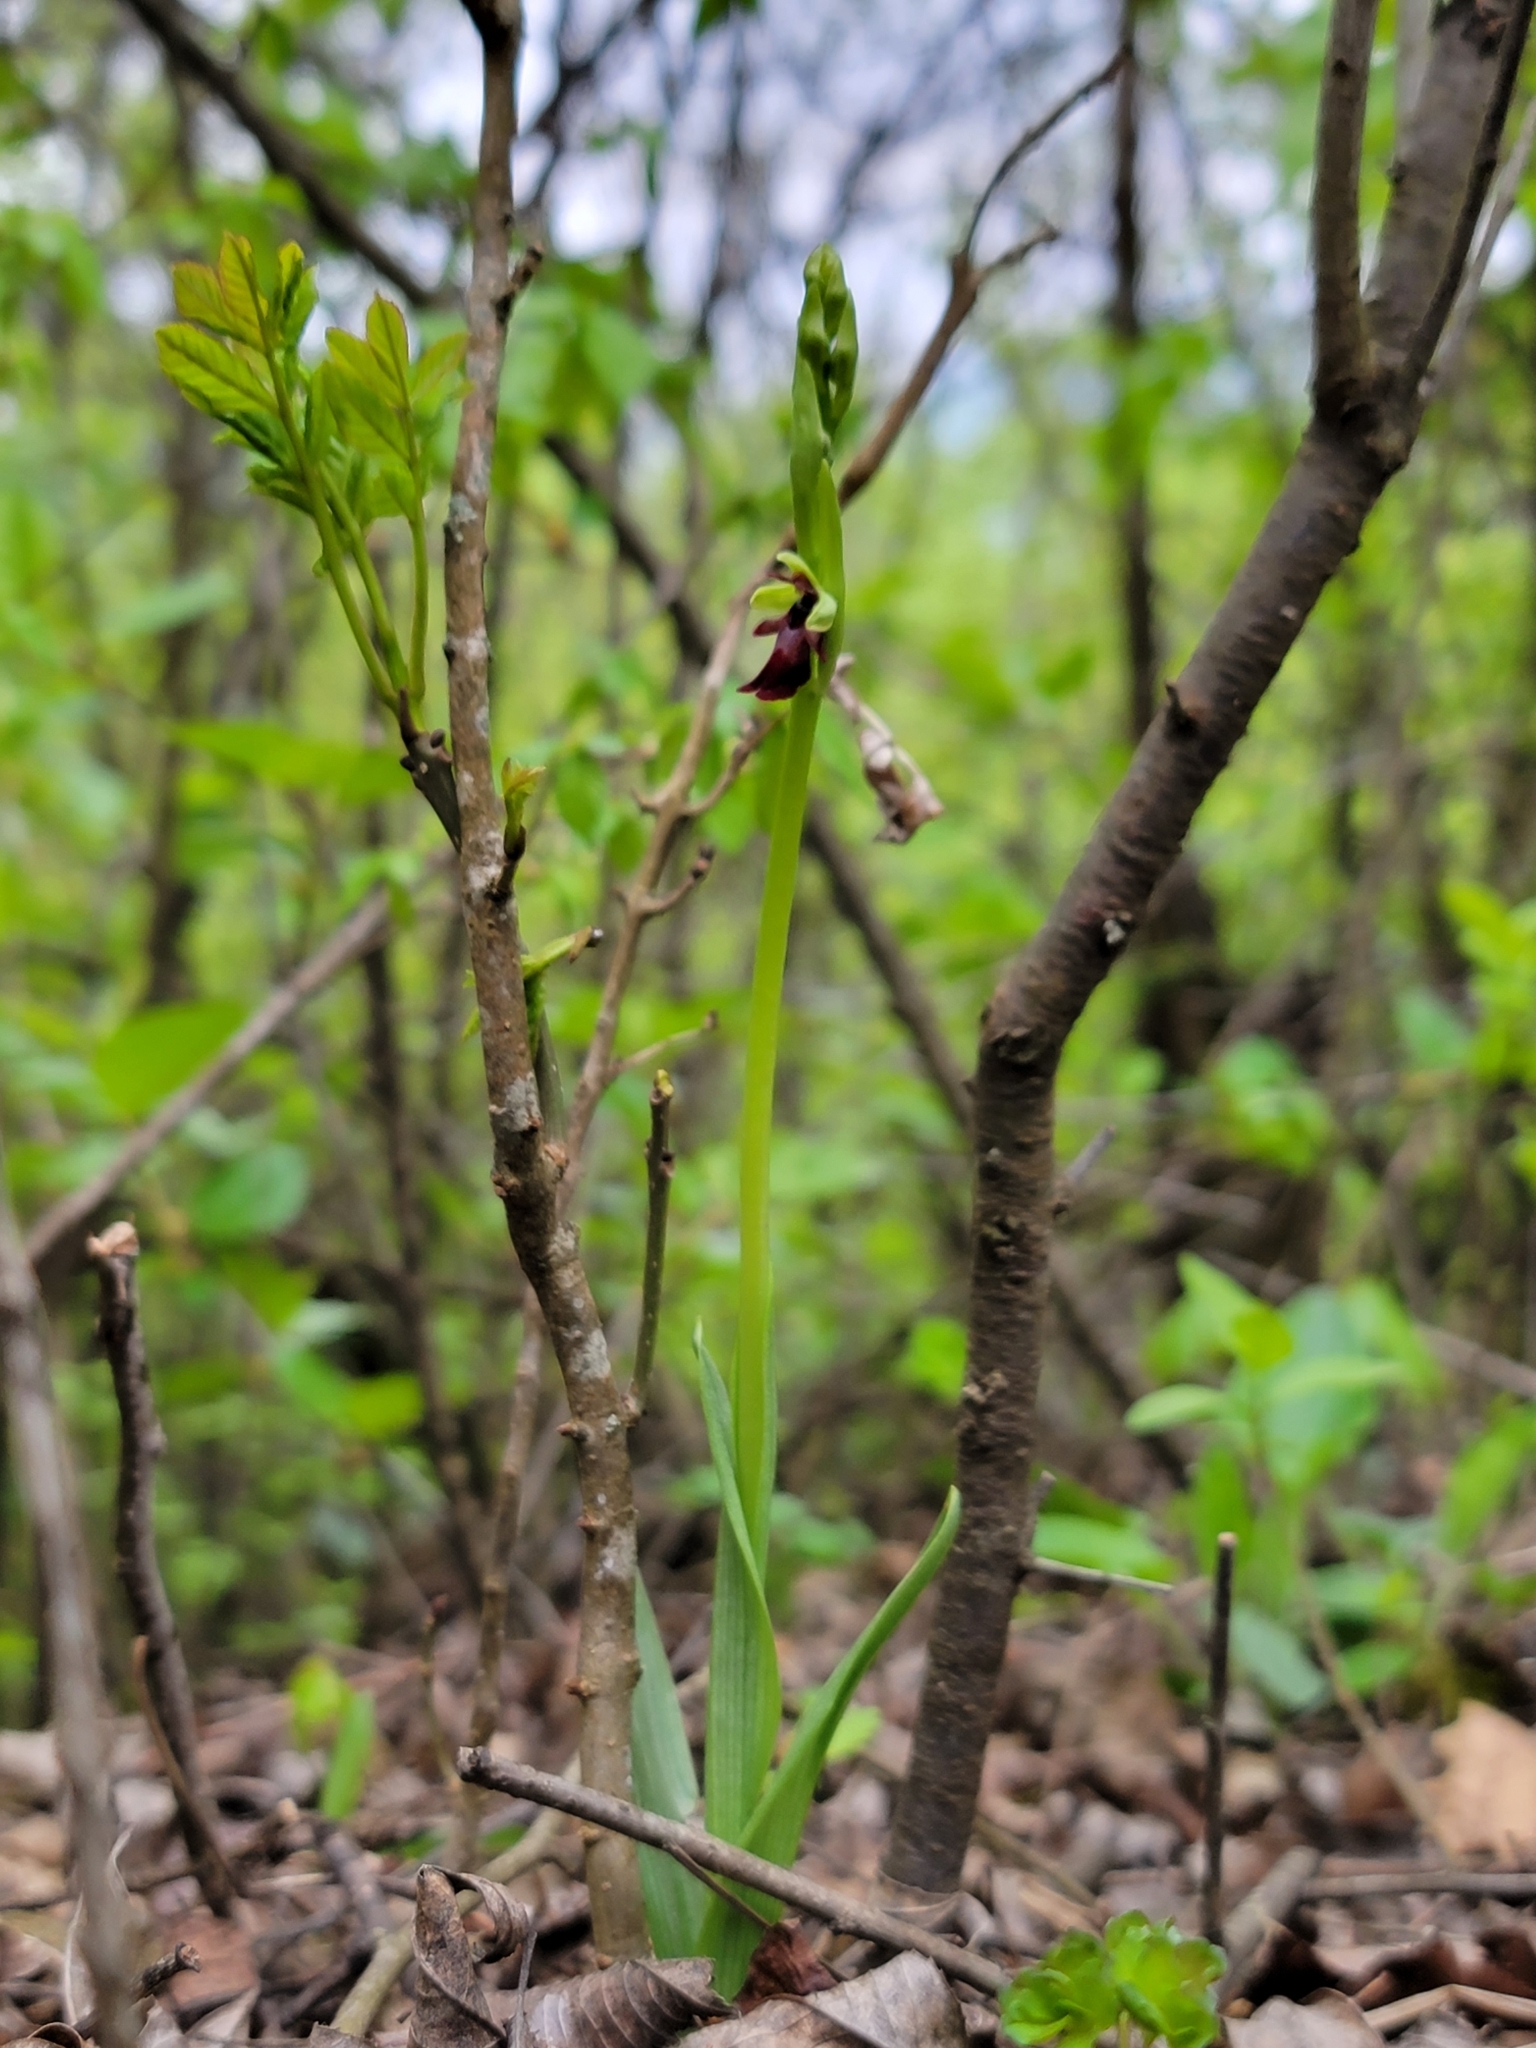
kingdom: Plantae
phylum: Tracheophyta
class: Liliopsida
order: Asparagales
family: Orchidaceae
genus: Ophrys
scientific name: Ophrys insectifera
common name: Fly orchid
